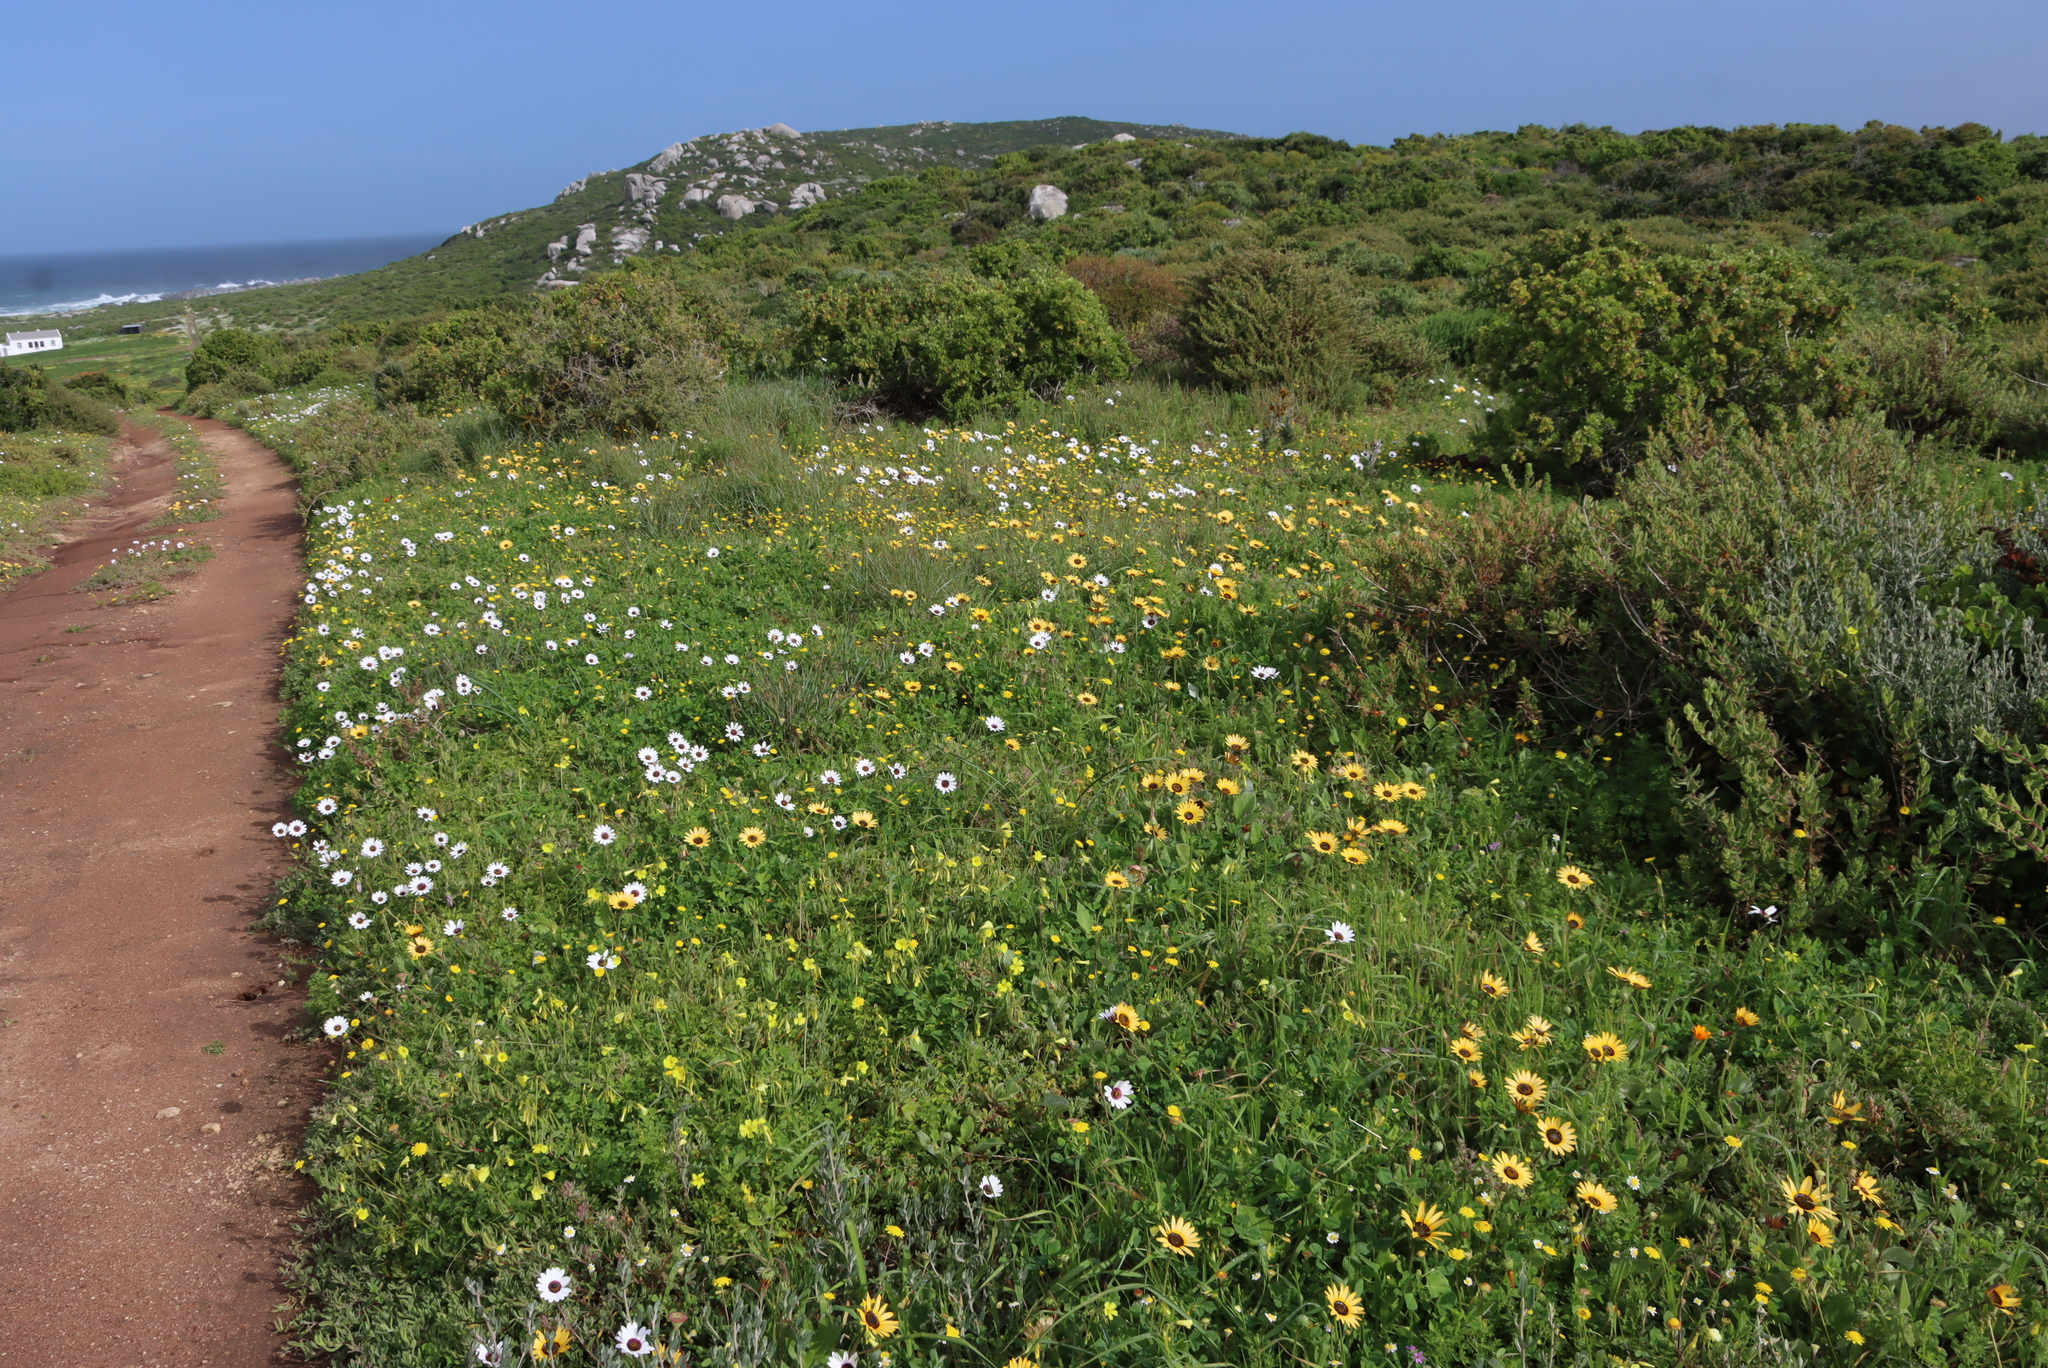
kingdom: Plantae
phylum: Tracheophyta
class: Magnoliopsida
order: Asterales
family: Asteraceae
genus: Arctotheca
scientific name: Arctotheca calendula
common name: Capeweed
